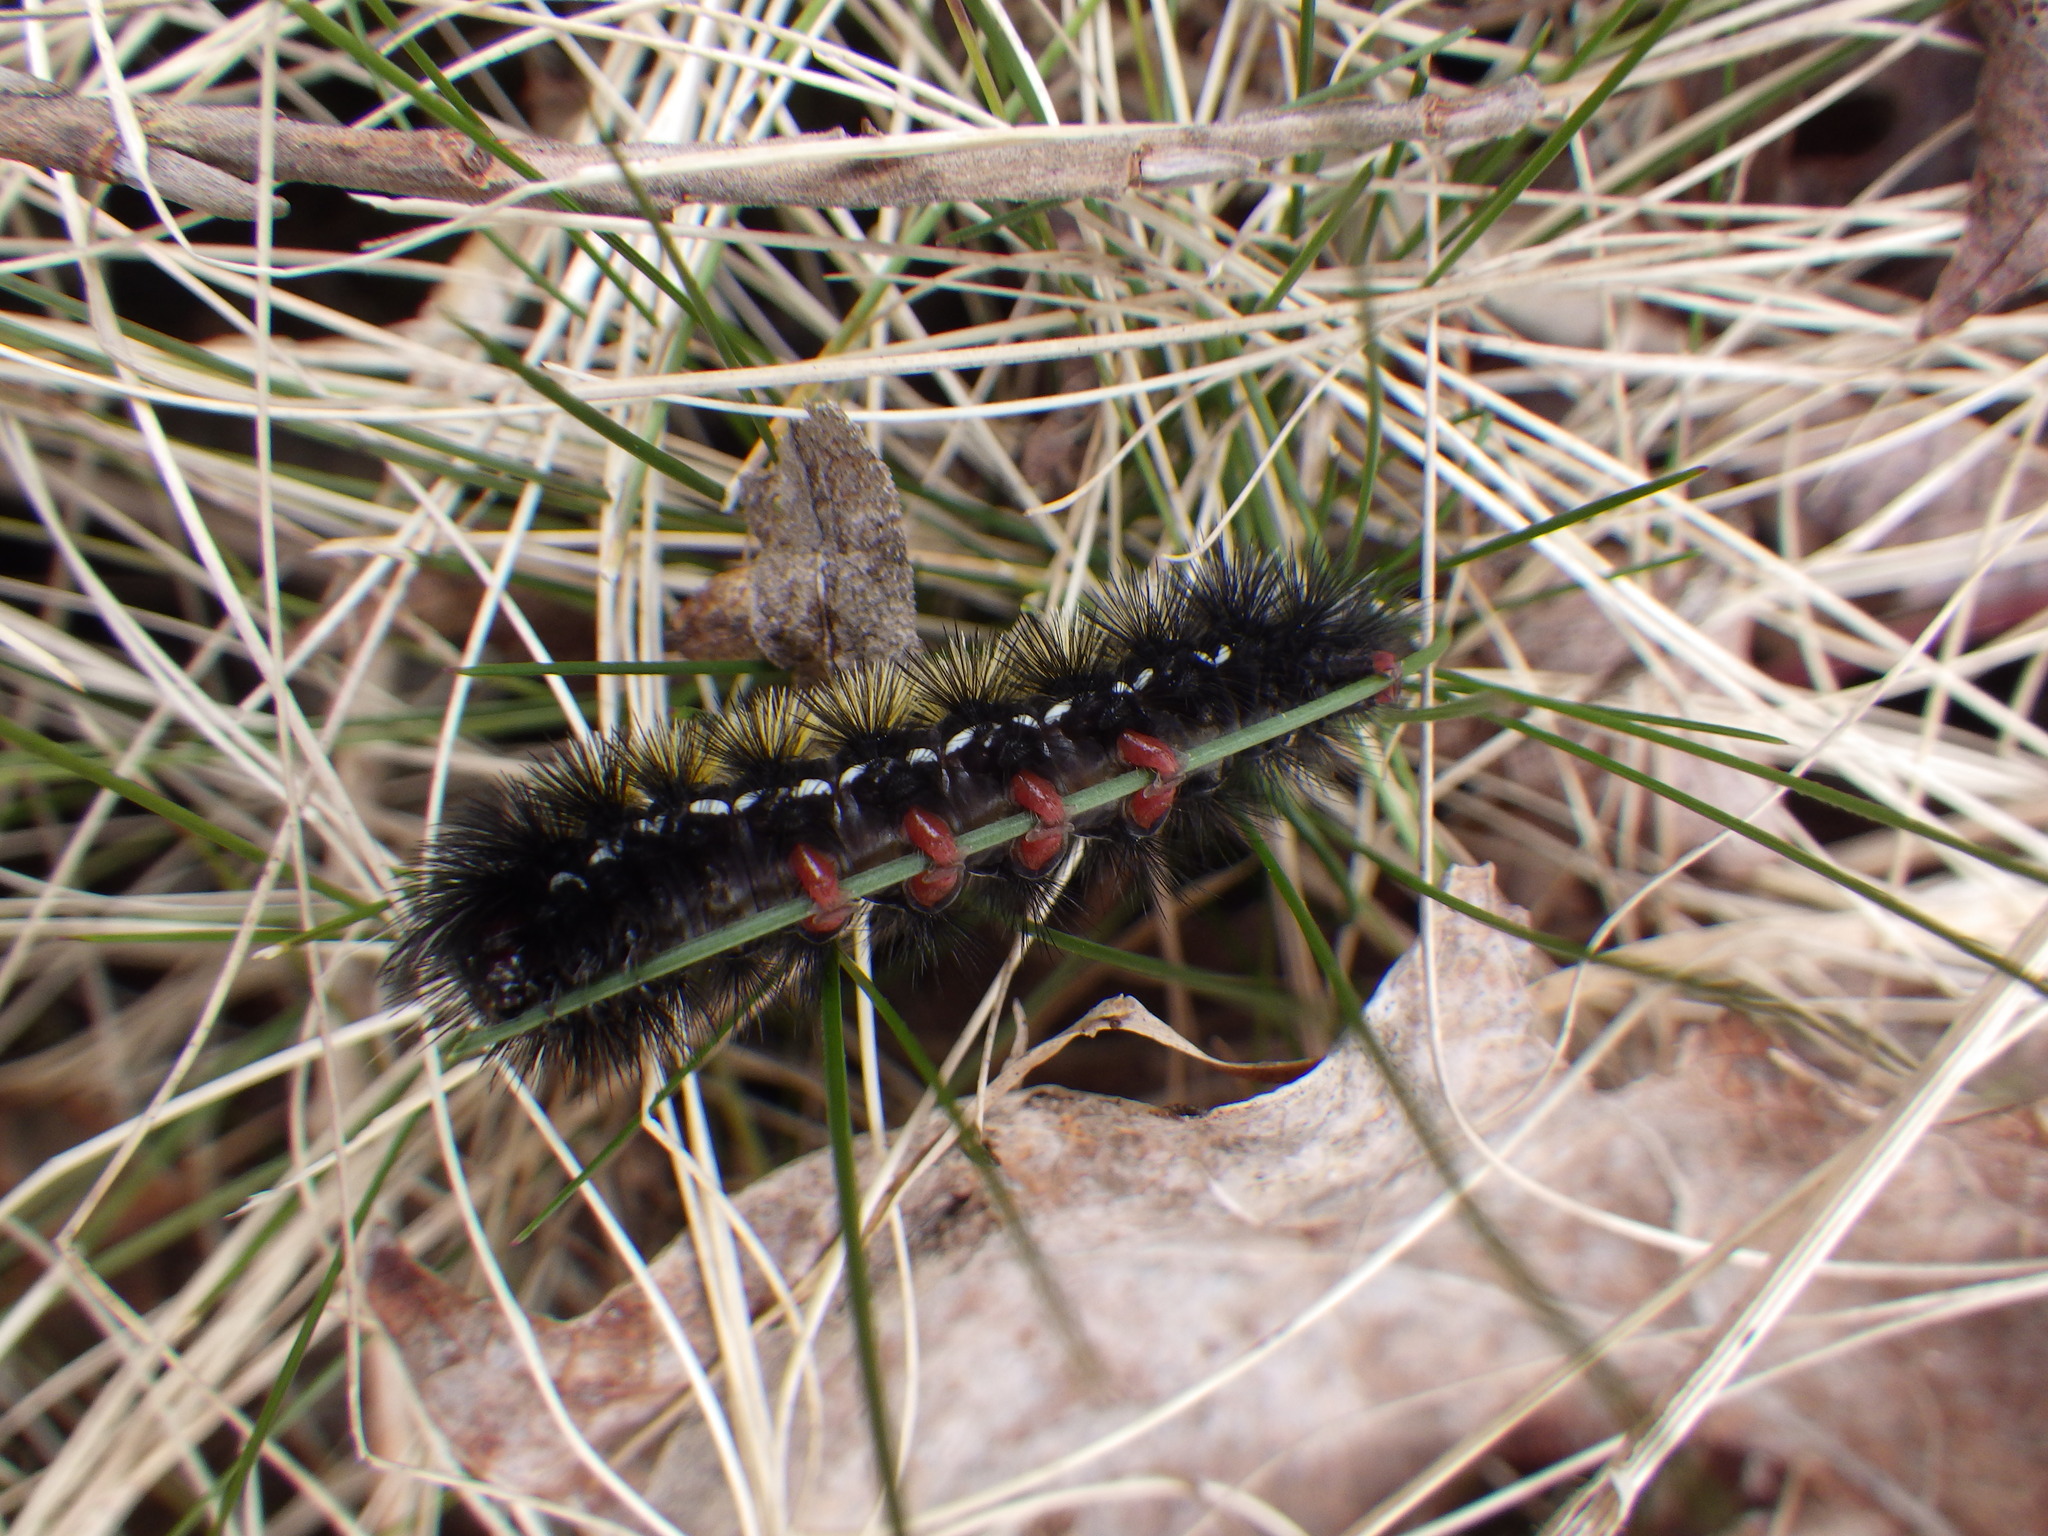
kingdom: Animalia
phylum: Arthropoda
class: Insecta
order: Lepidoptera
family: Erebidae
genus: Ctenucha
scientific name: Ctenucha virginica
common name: Virginia ctenucha moth
